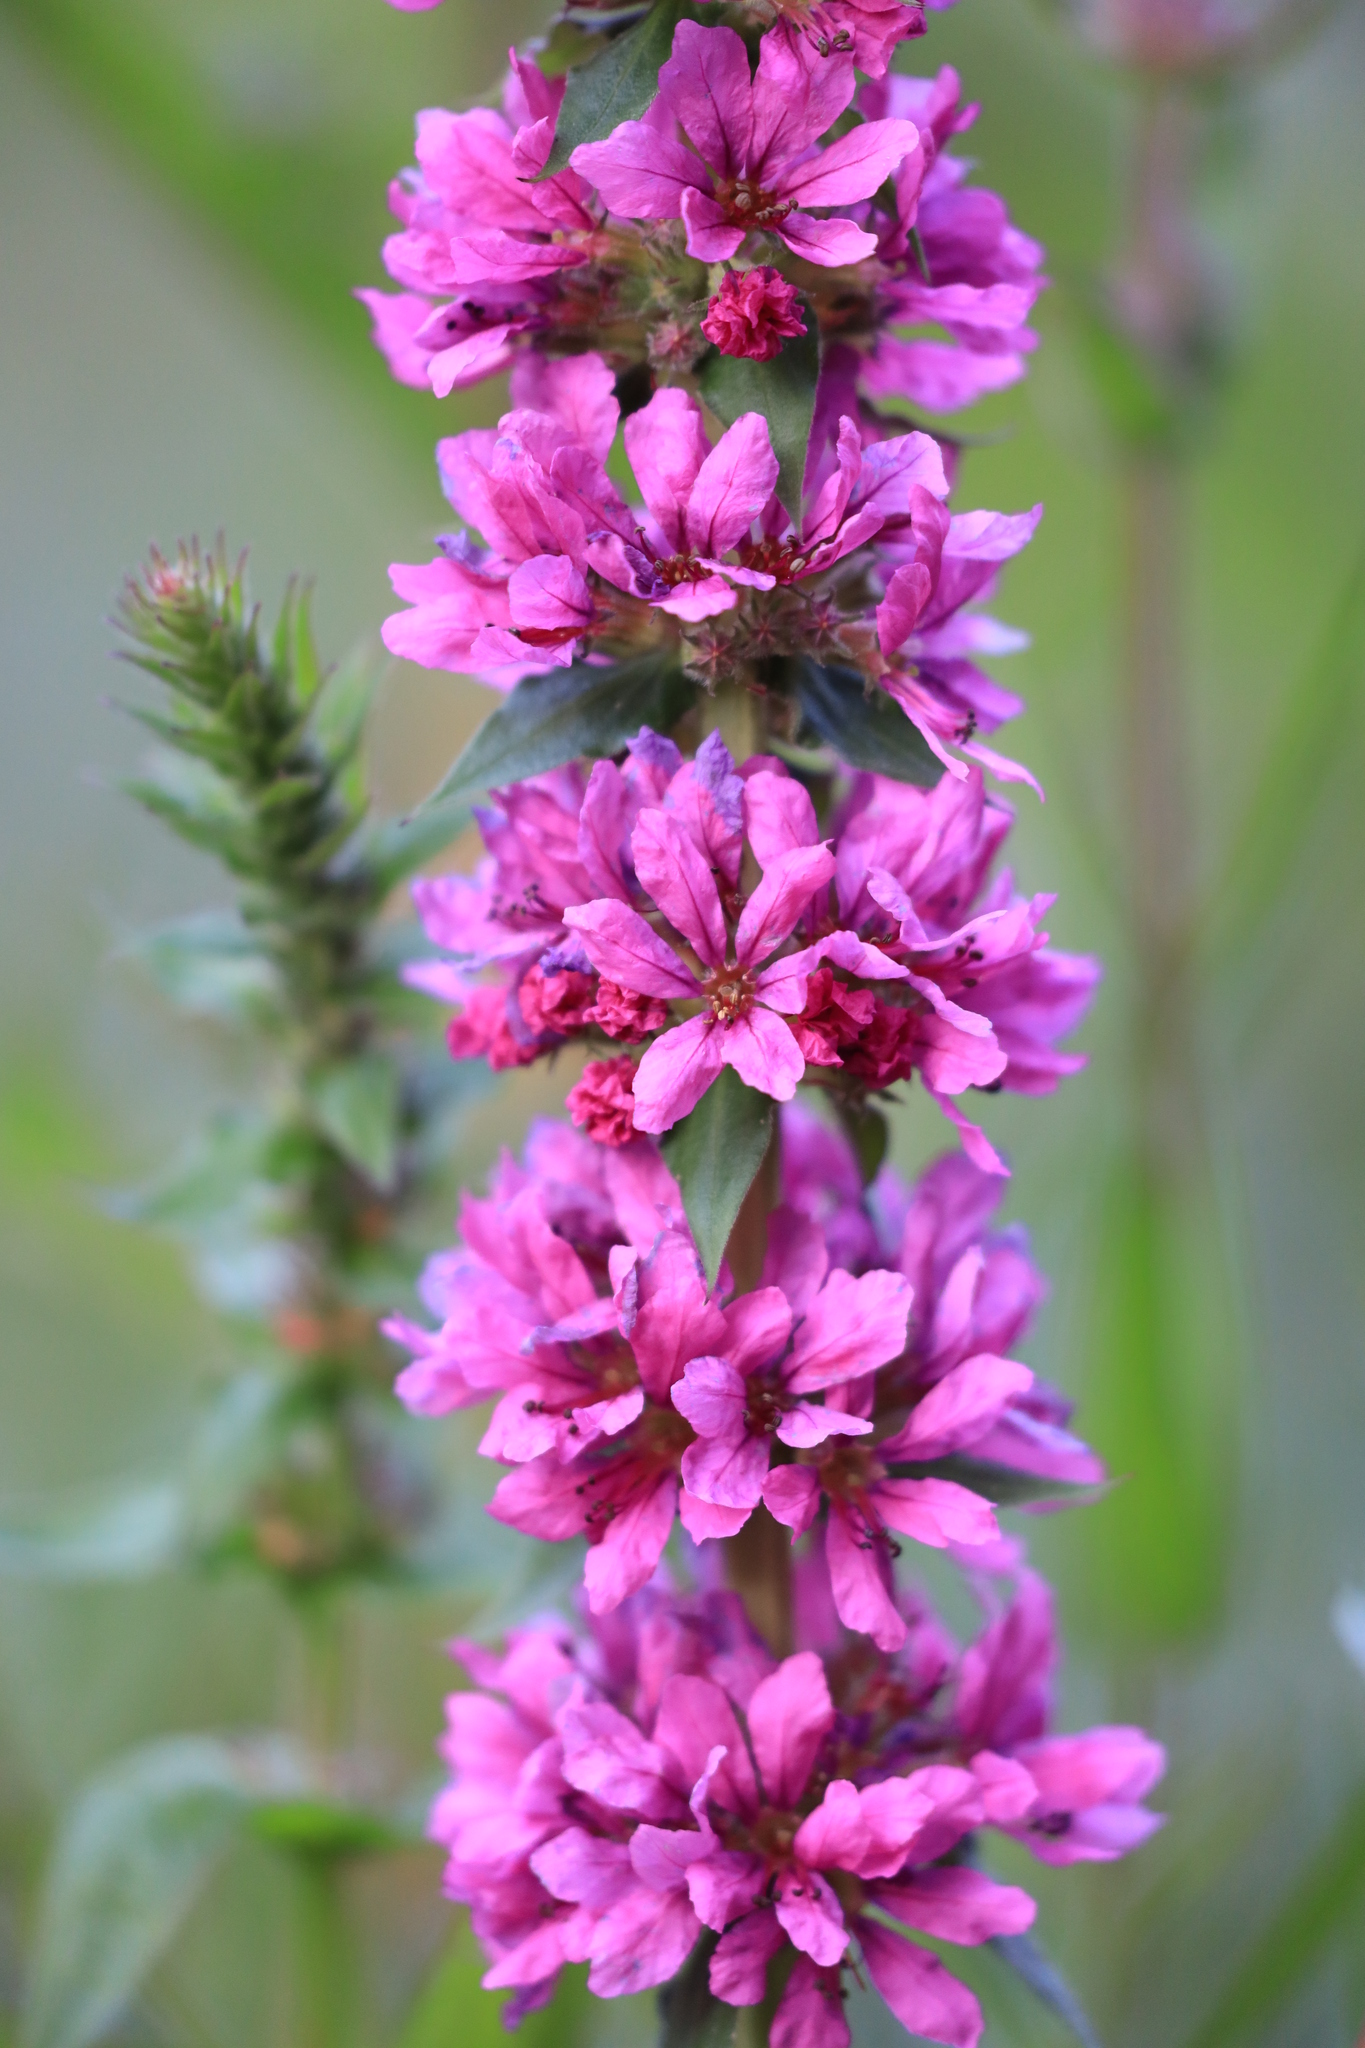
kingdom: Plantae
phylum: Tracheophyta
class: Magnoliopsida
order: Myrtales
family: Lythraceae
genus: Lythrum
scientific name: Lythrum salicaria
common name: Purple loosestrife
